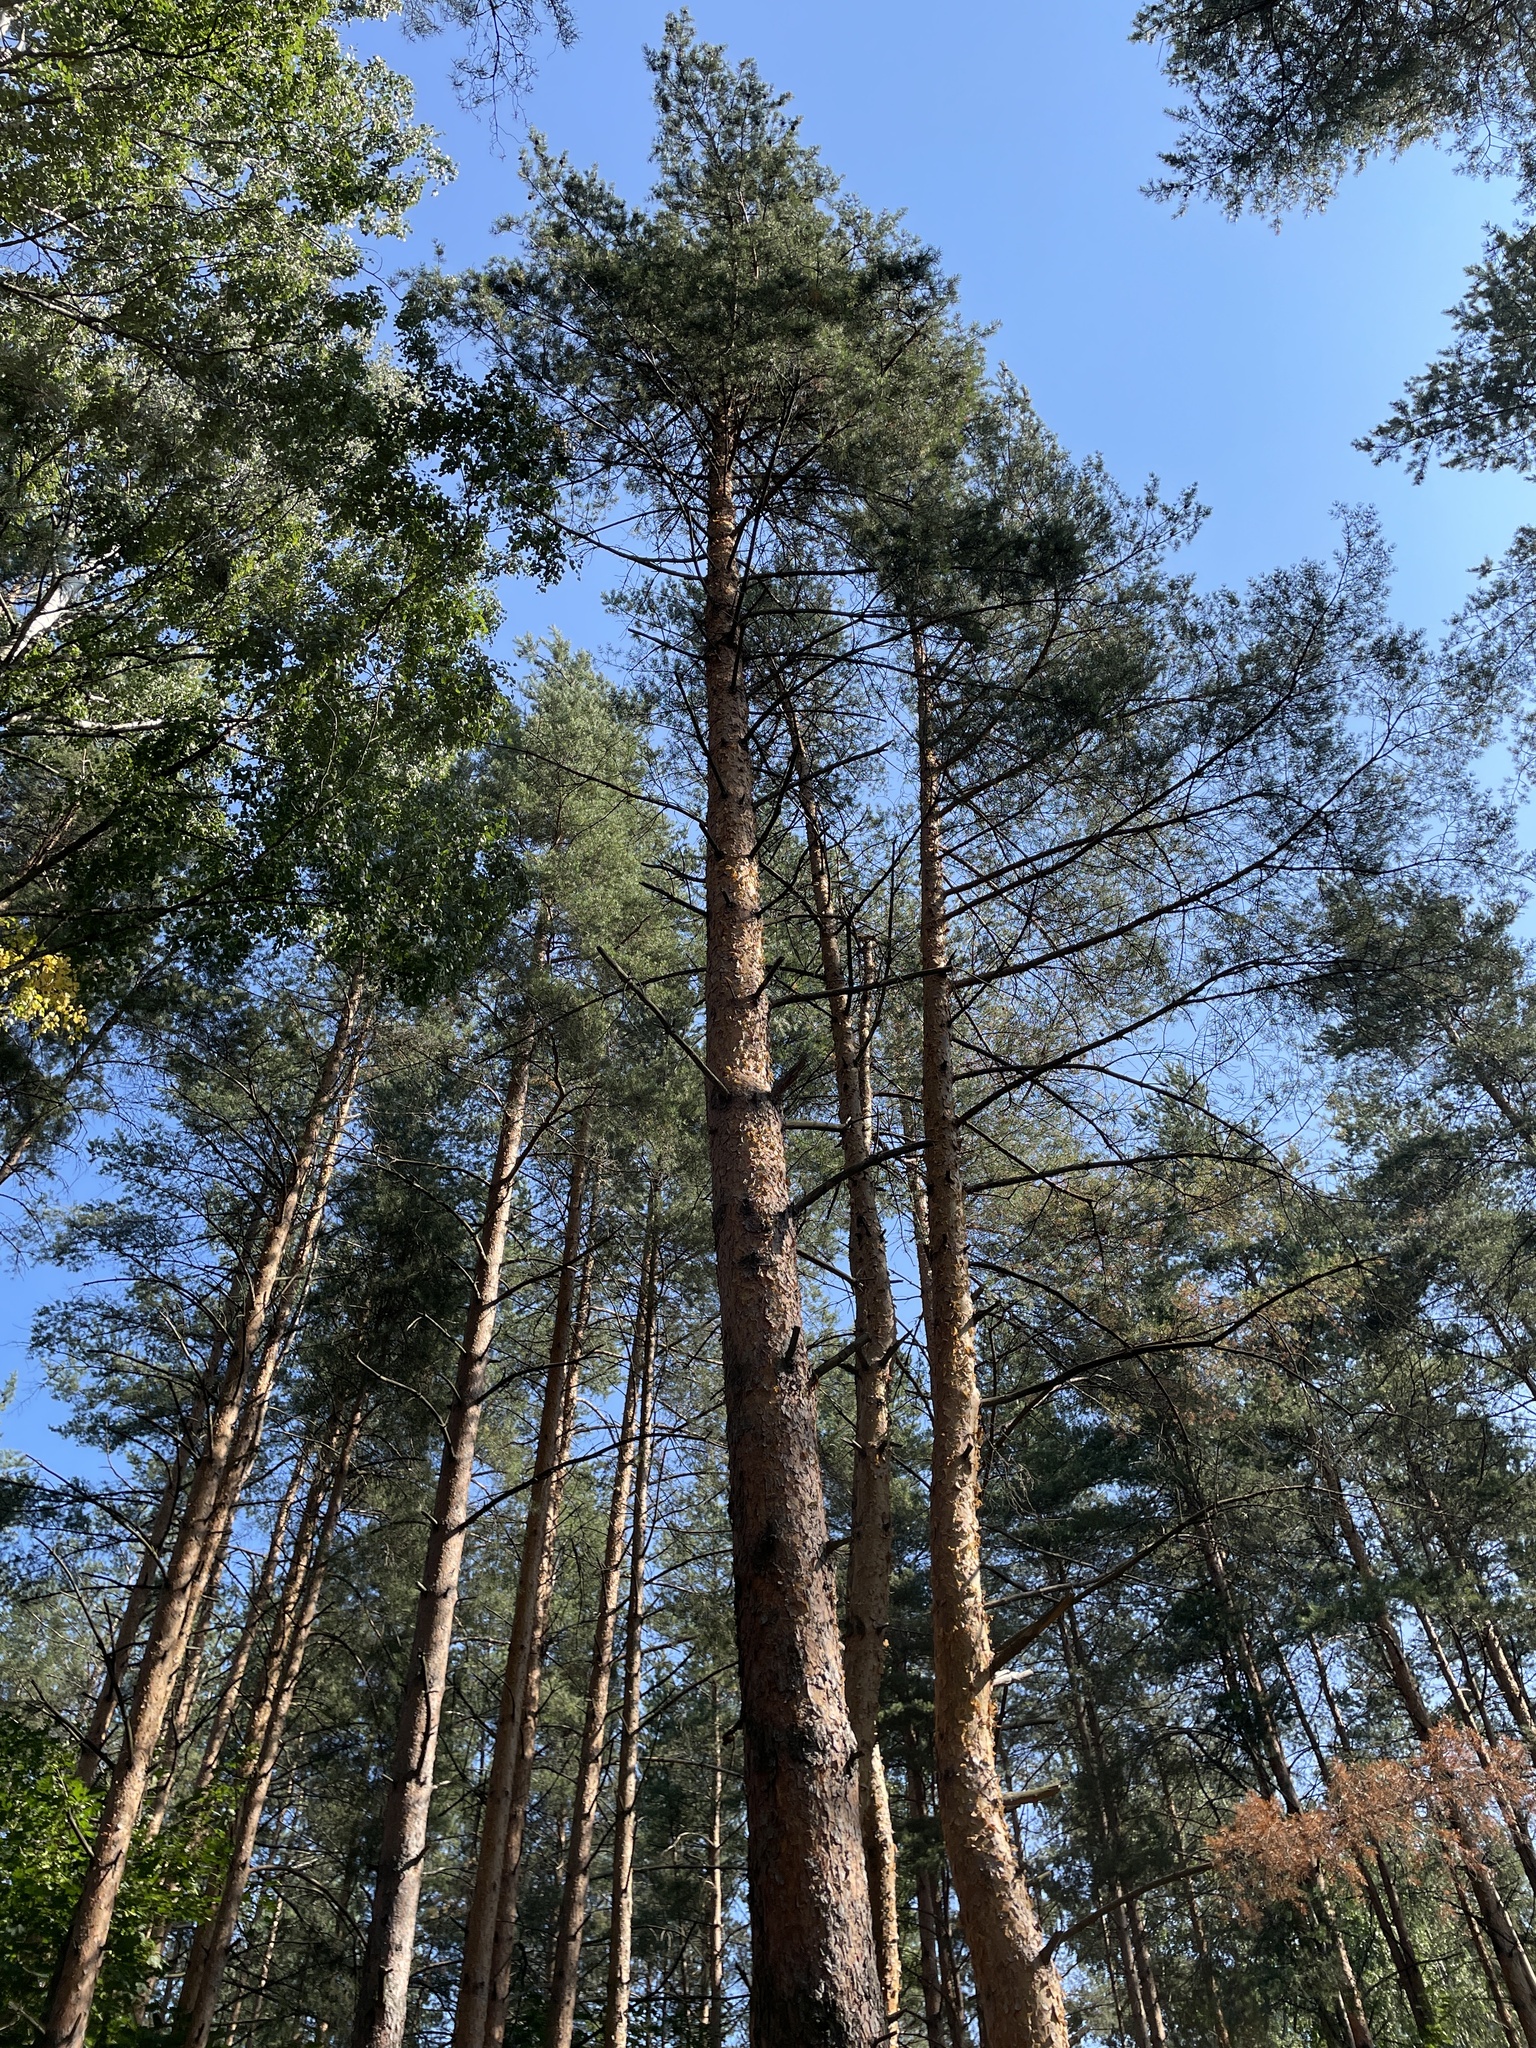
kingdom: Plantae
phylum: Tracheophyta
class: Pinopsida
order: Pinales
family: Pinaceae
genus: Pinus
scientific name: Pinus sylvestris
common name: Scots pine
